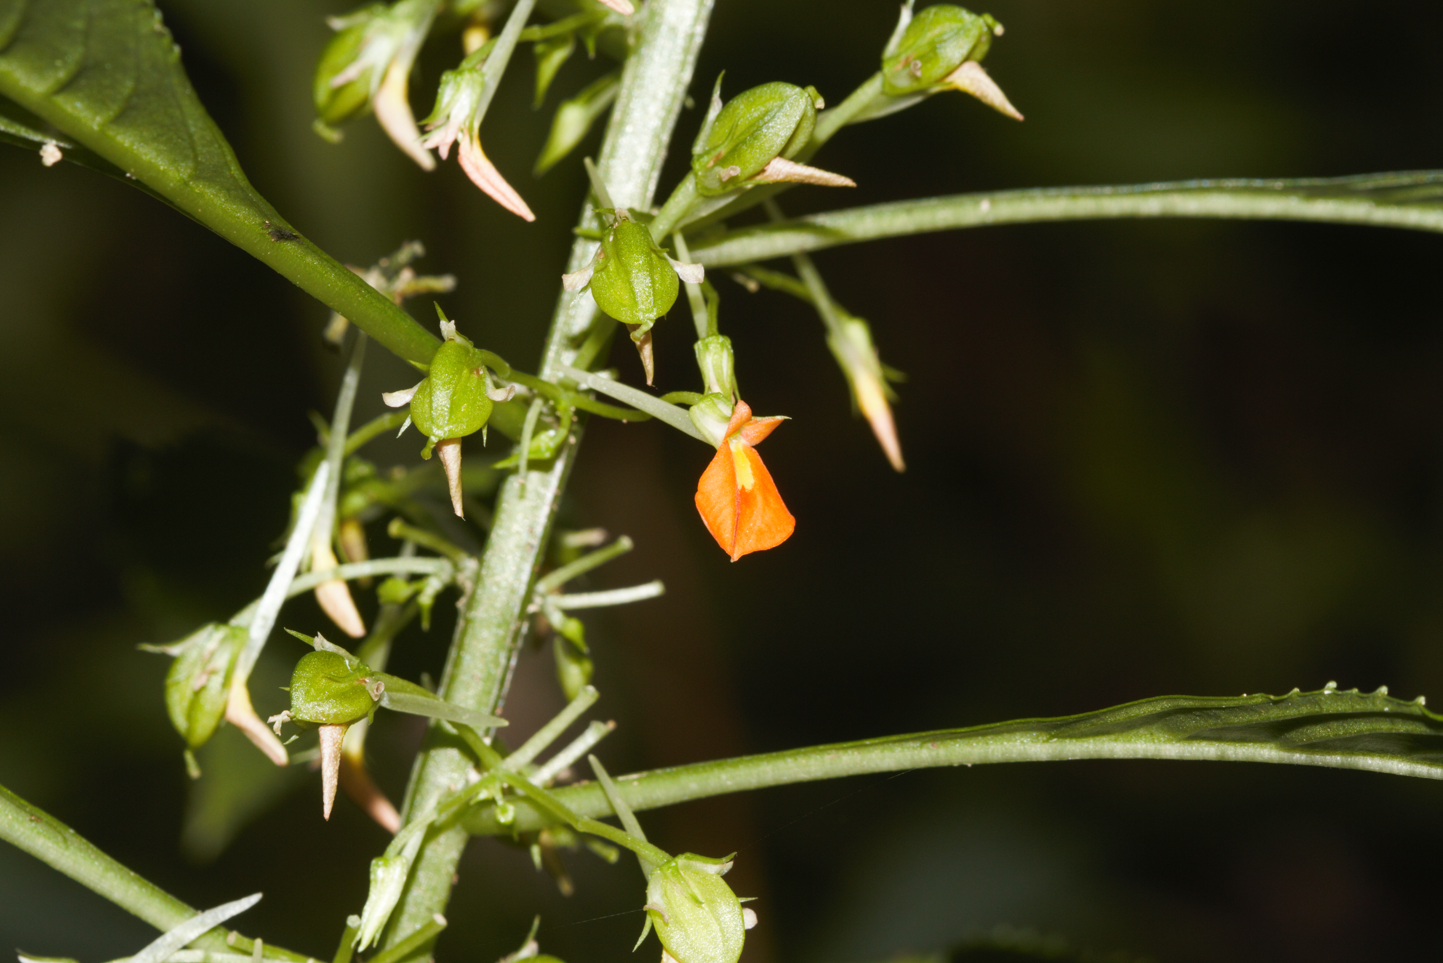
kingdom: Plantae
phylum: Tracheophyta
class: Magnoliopsida
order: Malpighiales
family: Violaceae
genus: Noisettia
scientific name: Noisettia orchidiflora
